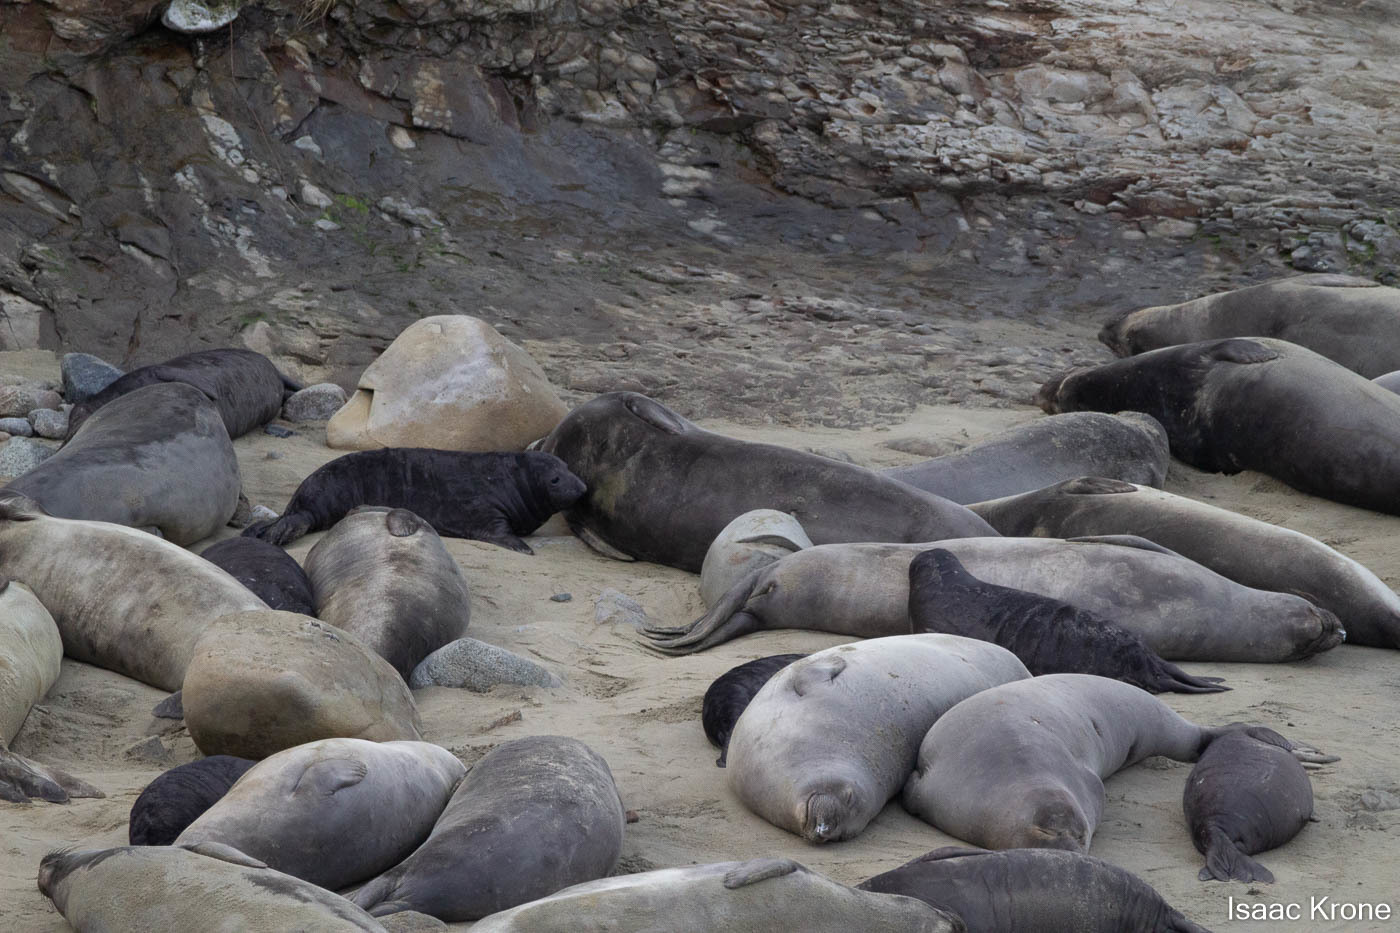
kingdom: Animalia
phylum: Chordata
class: Mammalia
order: Carnivora
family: Phocidae
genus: Mirounga
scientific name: Mirounga angustirostris
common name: Northern elephant seal
